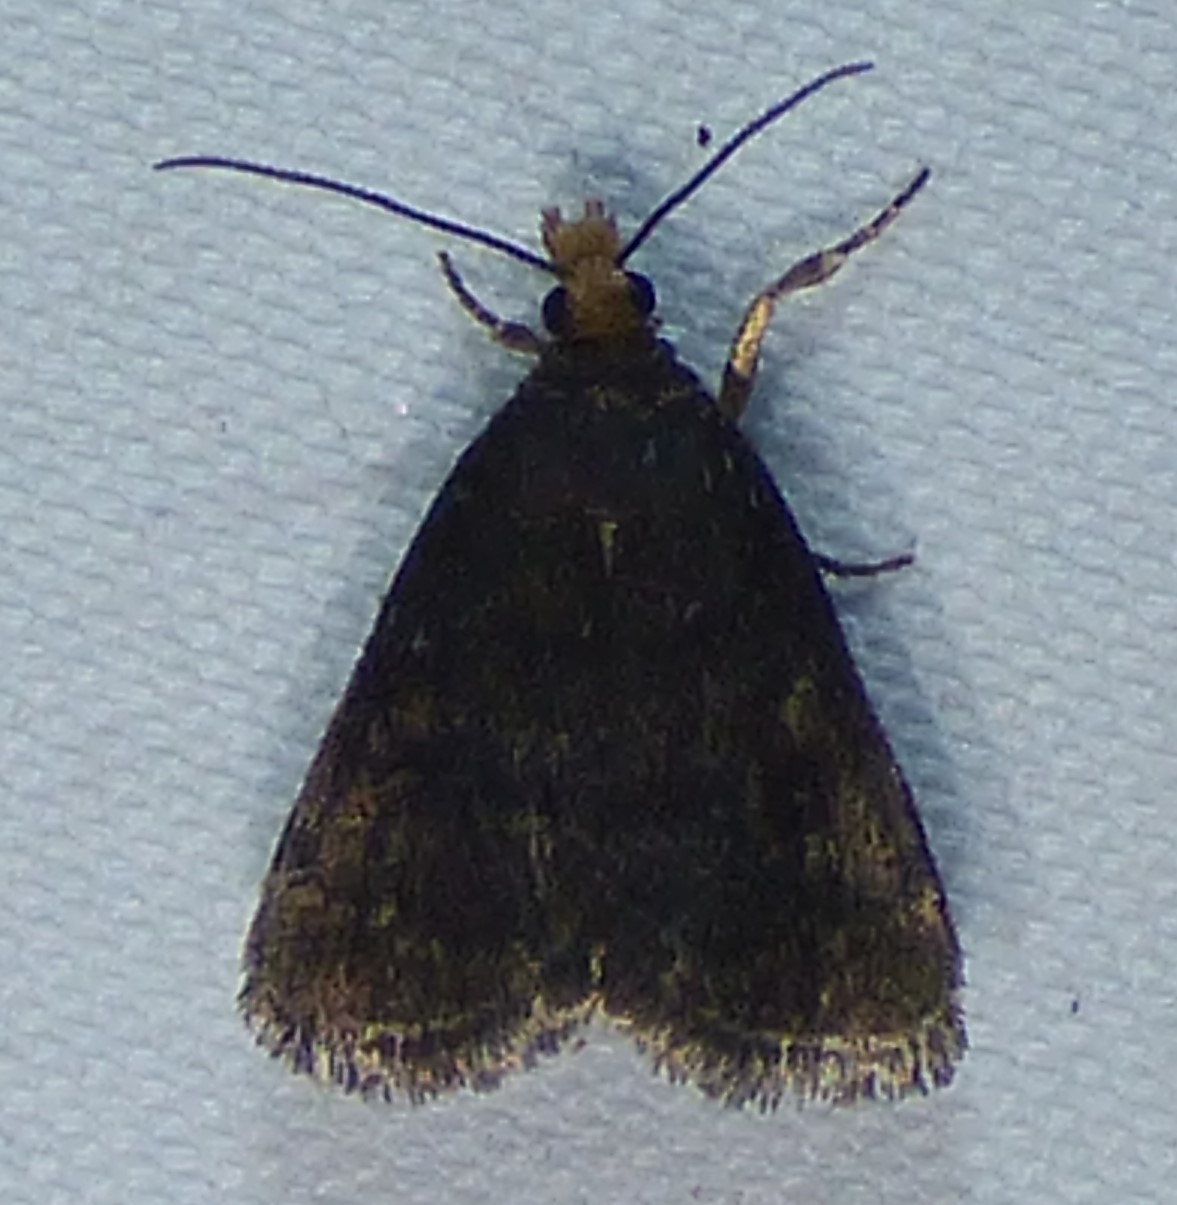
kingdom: Animalia
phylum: Arthropoda
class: Insecta
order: Lepidoptera
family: Crambidae
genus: Pyrausta
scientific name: Pyrausta merrickalis
